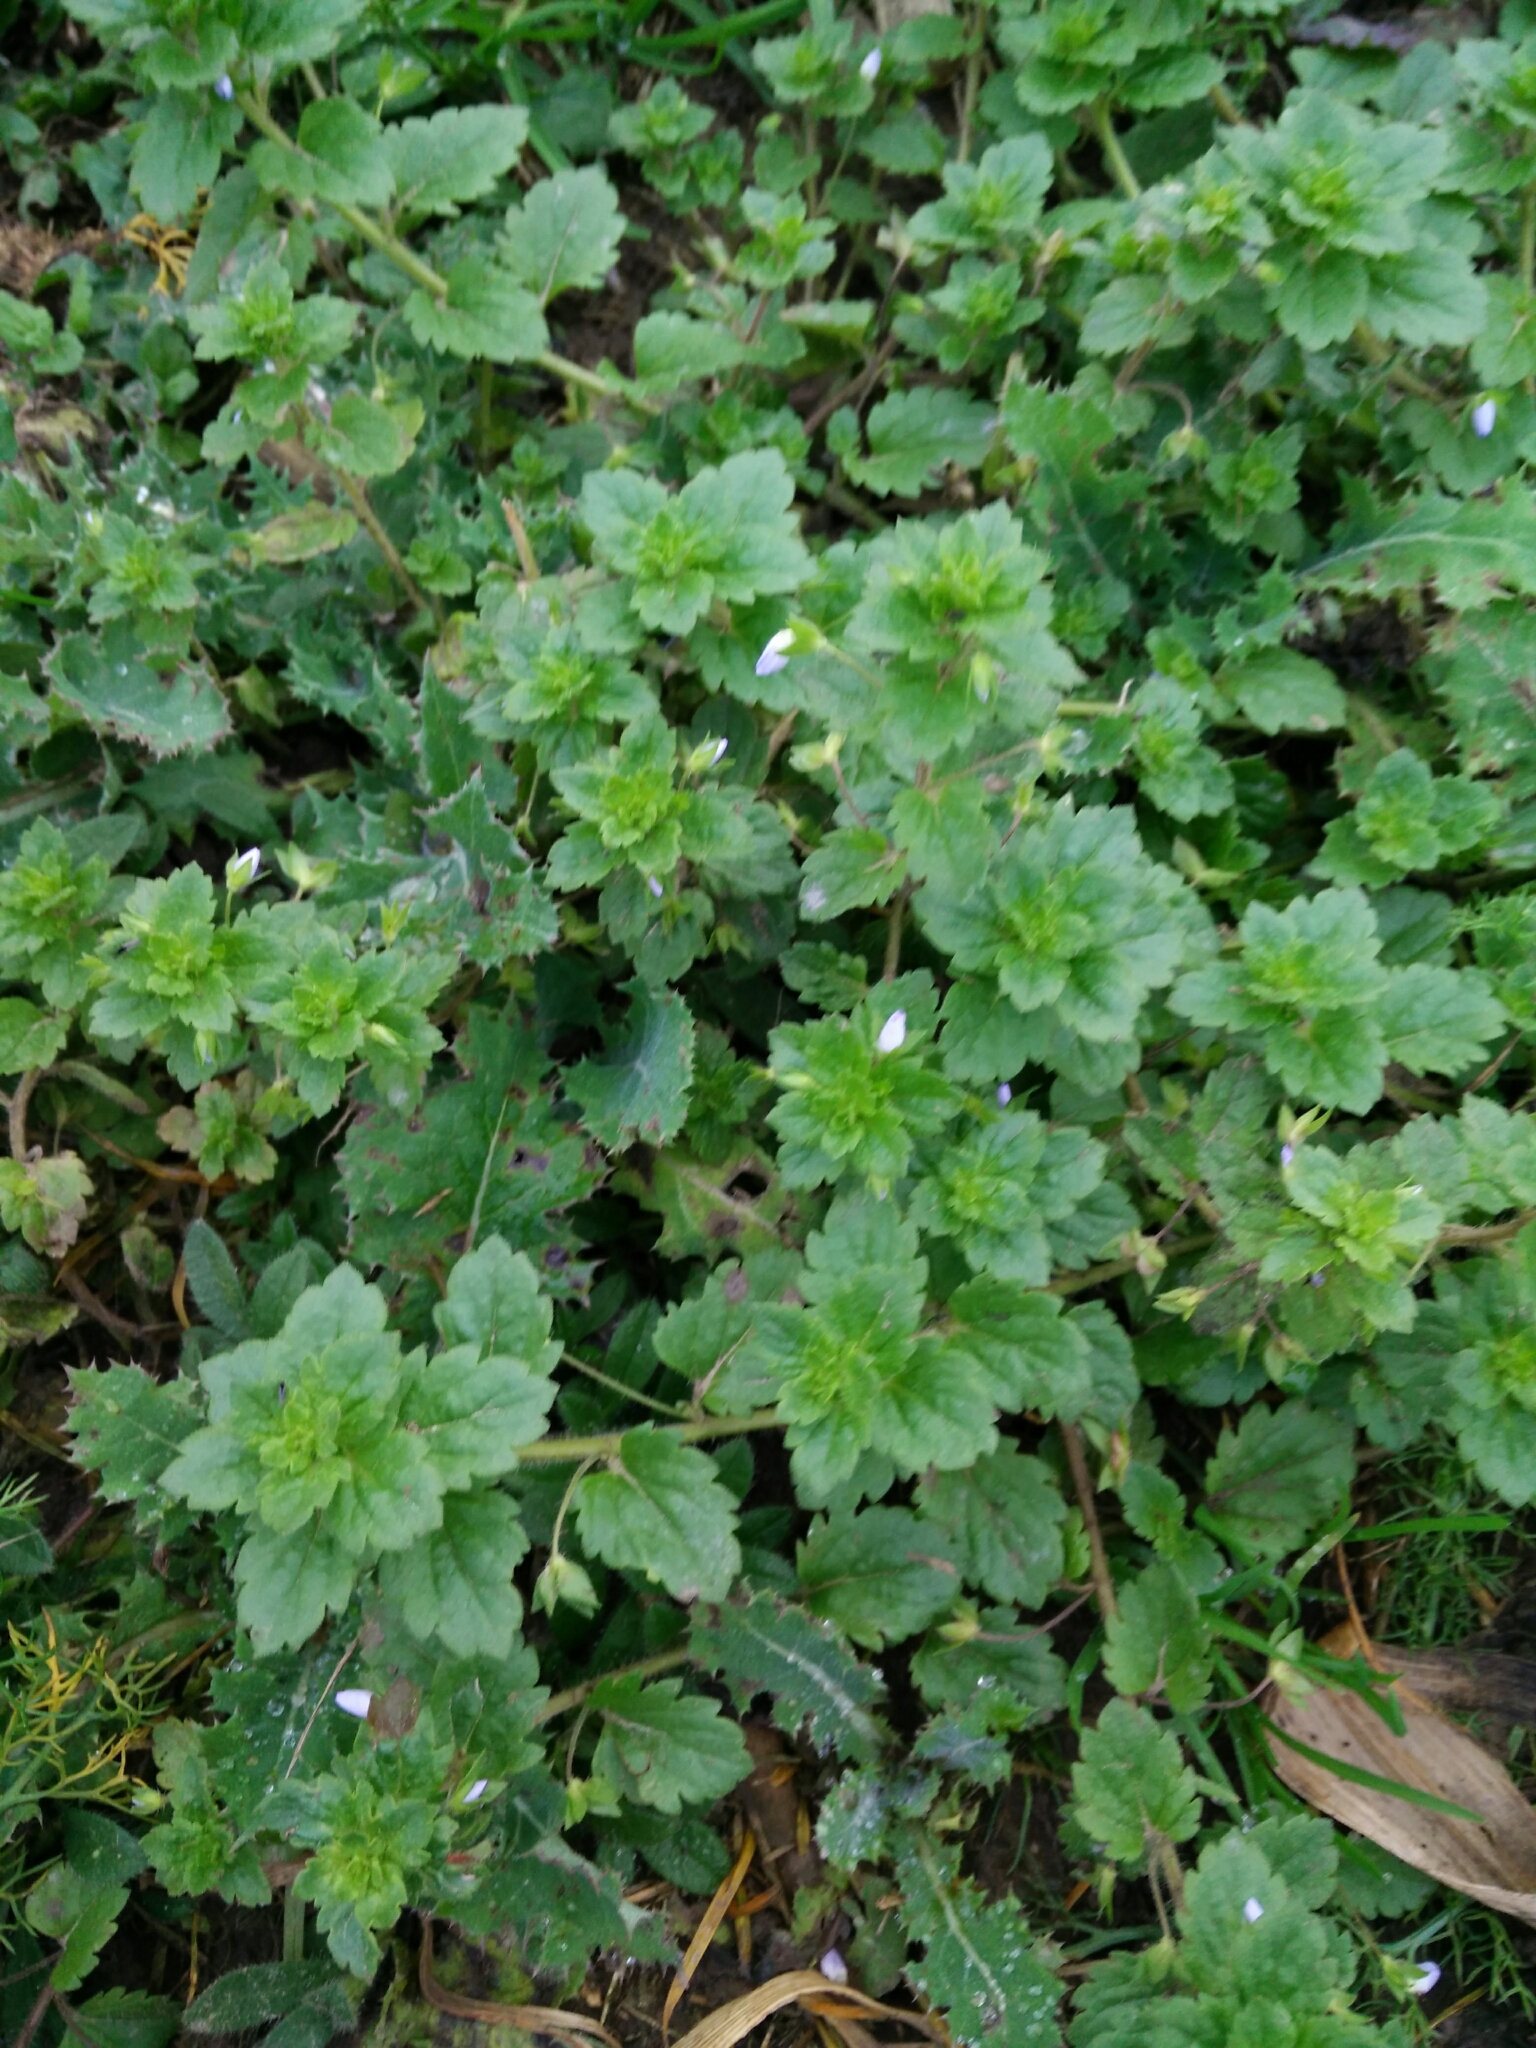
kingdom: Plantae
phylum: Tracheophyta
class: Magnoliopsida
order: Lamiales
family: Plantaginaceae
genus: Veronica
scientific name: Veronica persica
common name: Common field-speedwell
